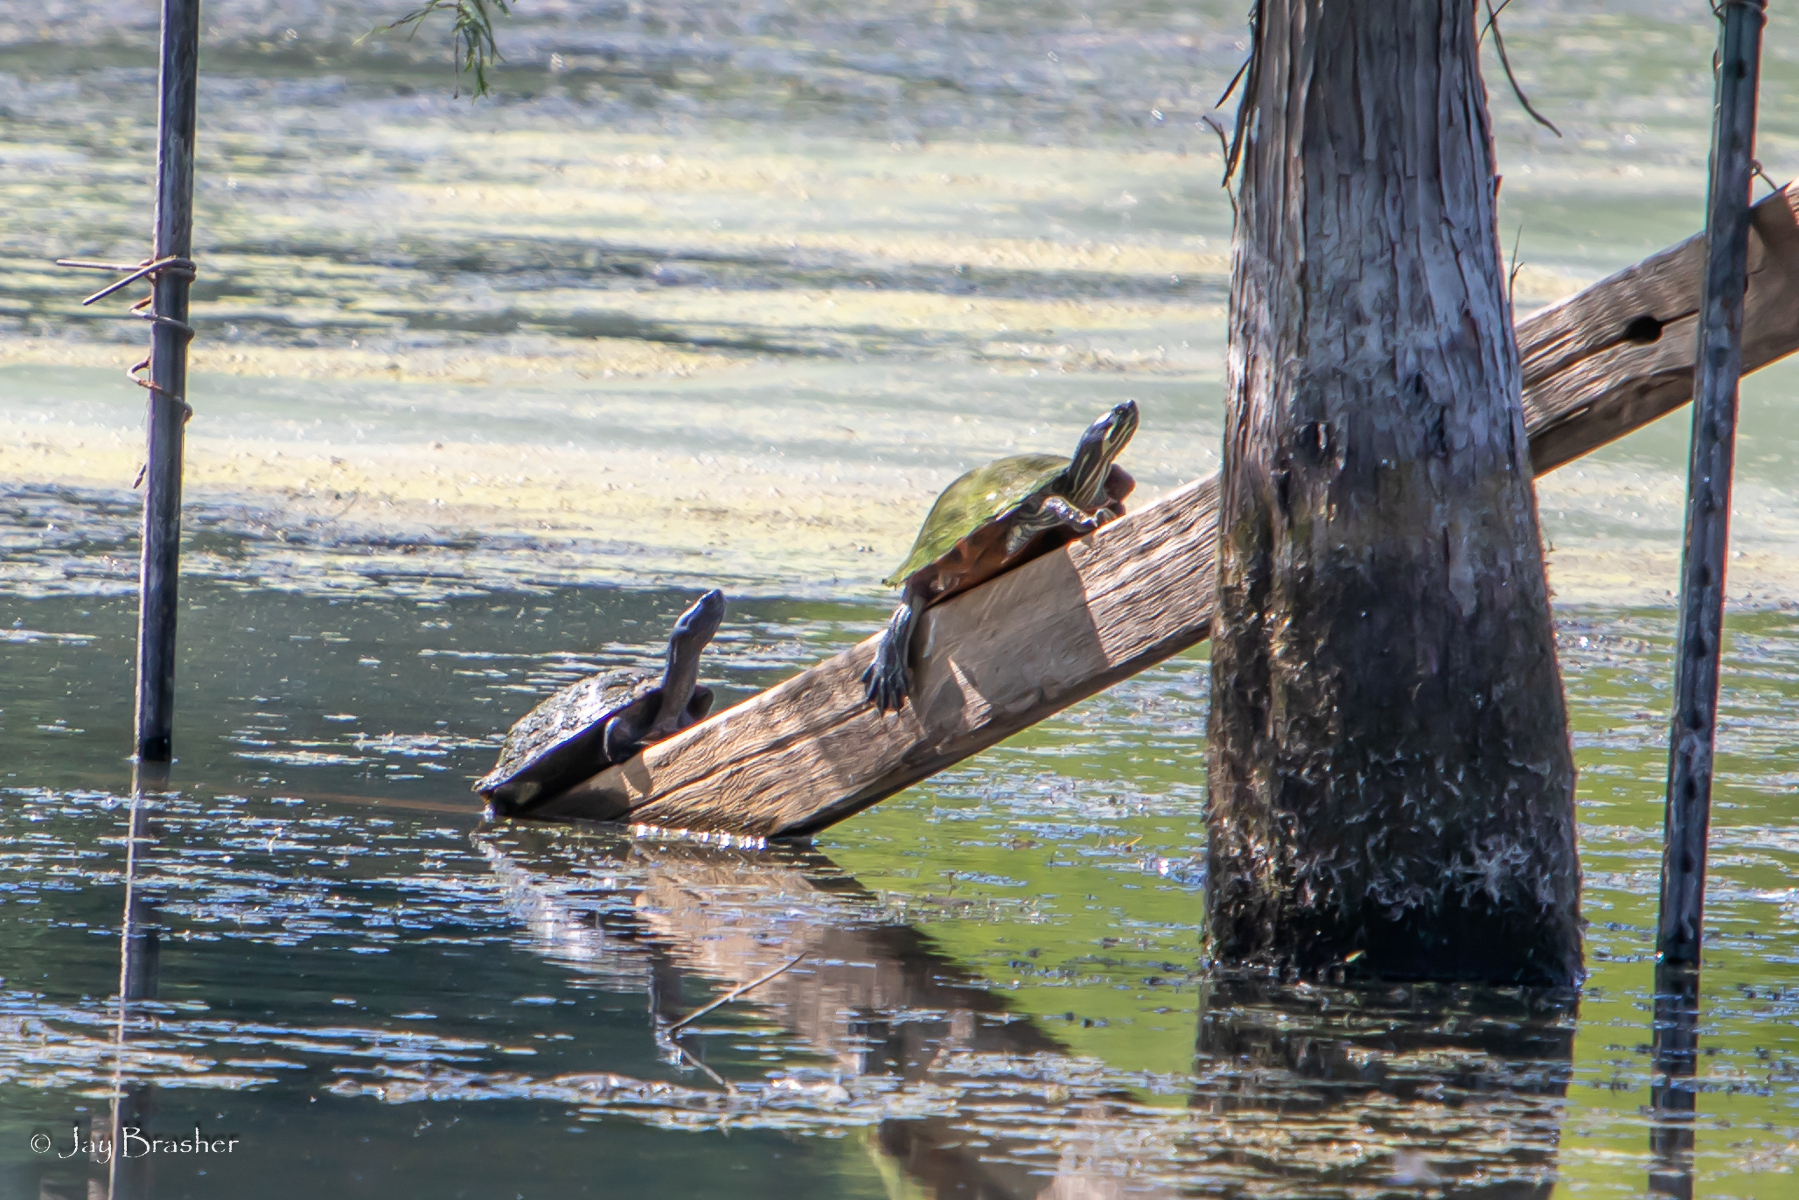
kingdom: Animalia
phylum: Chordata
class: Testudines
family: Emydidae
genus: Trachemys
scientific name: Trachemys scripta
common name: Slider
